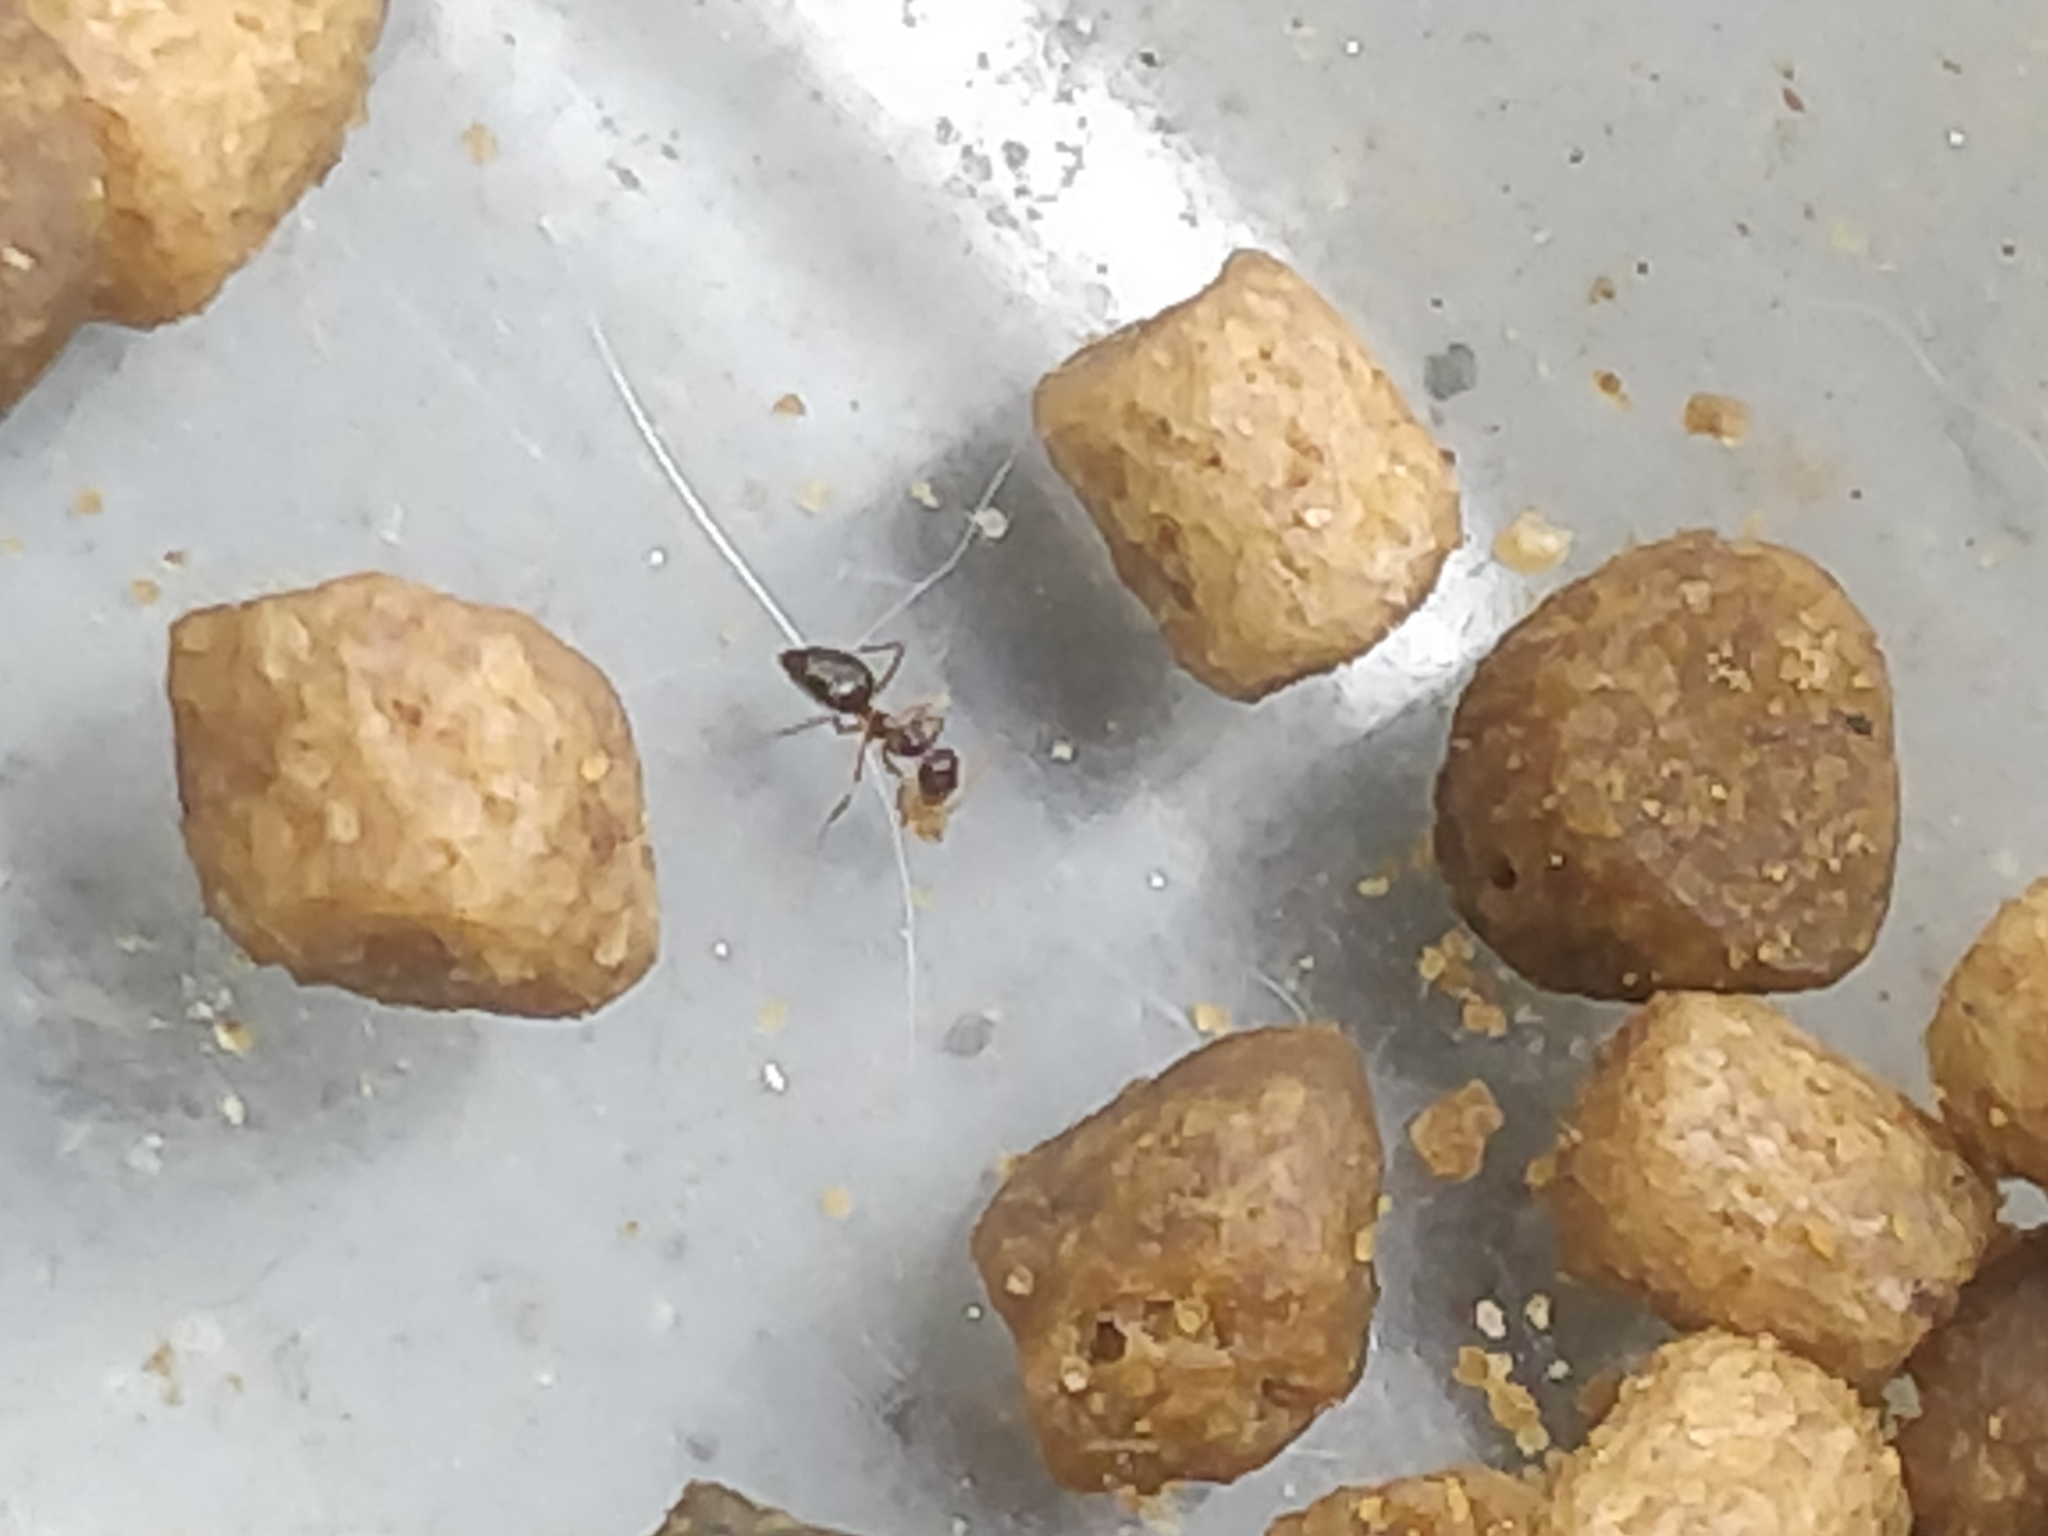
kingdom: Animalia
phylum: Arthropoda
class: Insecta
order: Hymenoptera
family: Formicidae
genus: Prenolepis
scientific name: Prenolepis imparis
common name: Small honey ant
